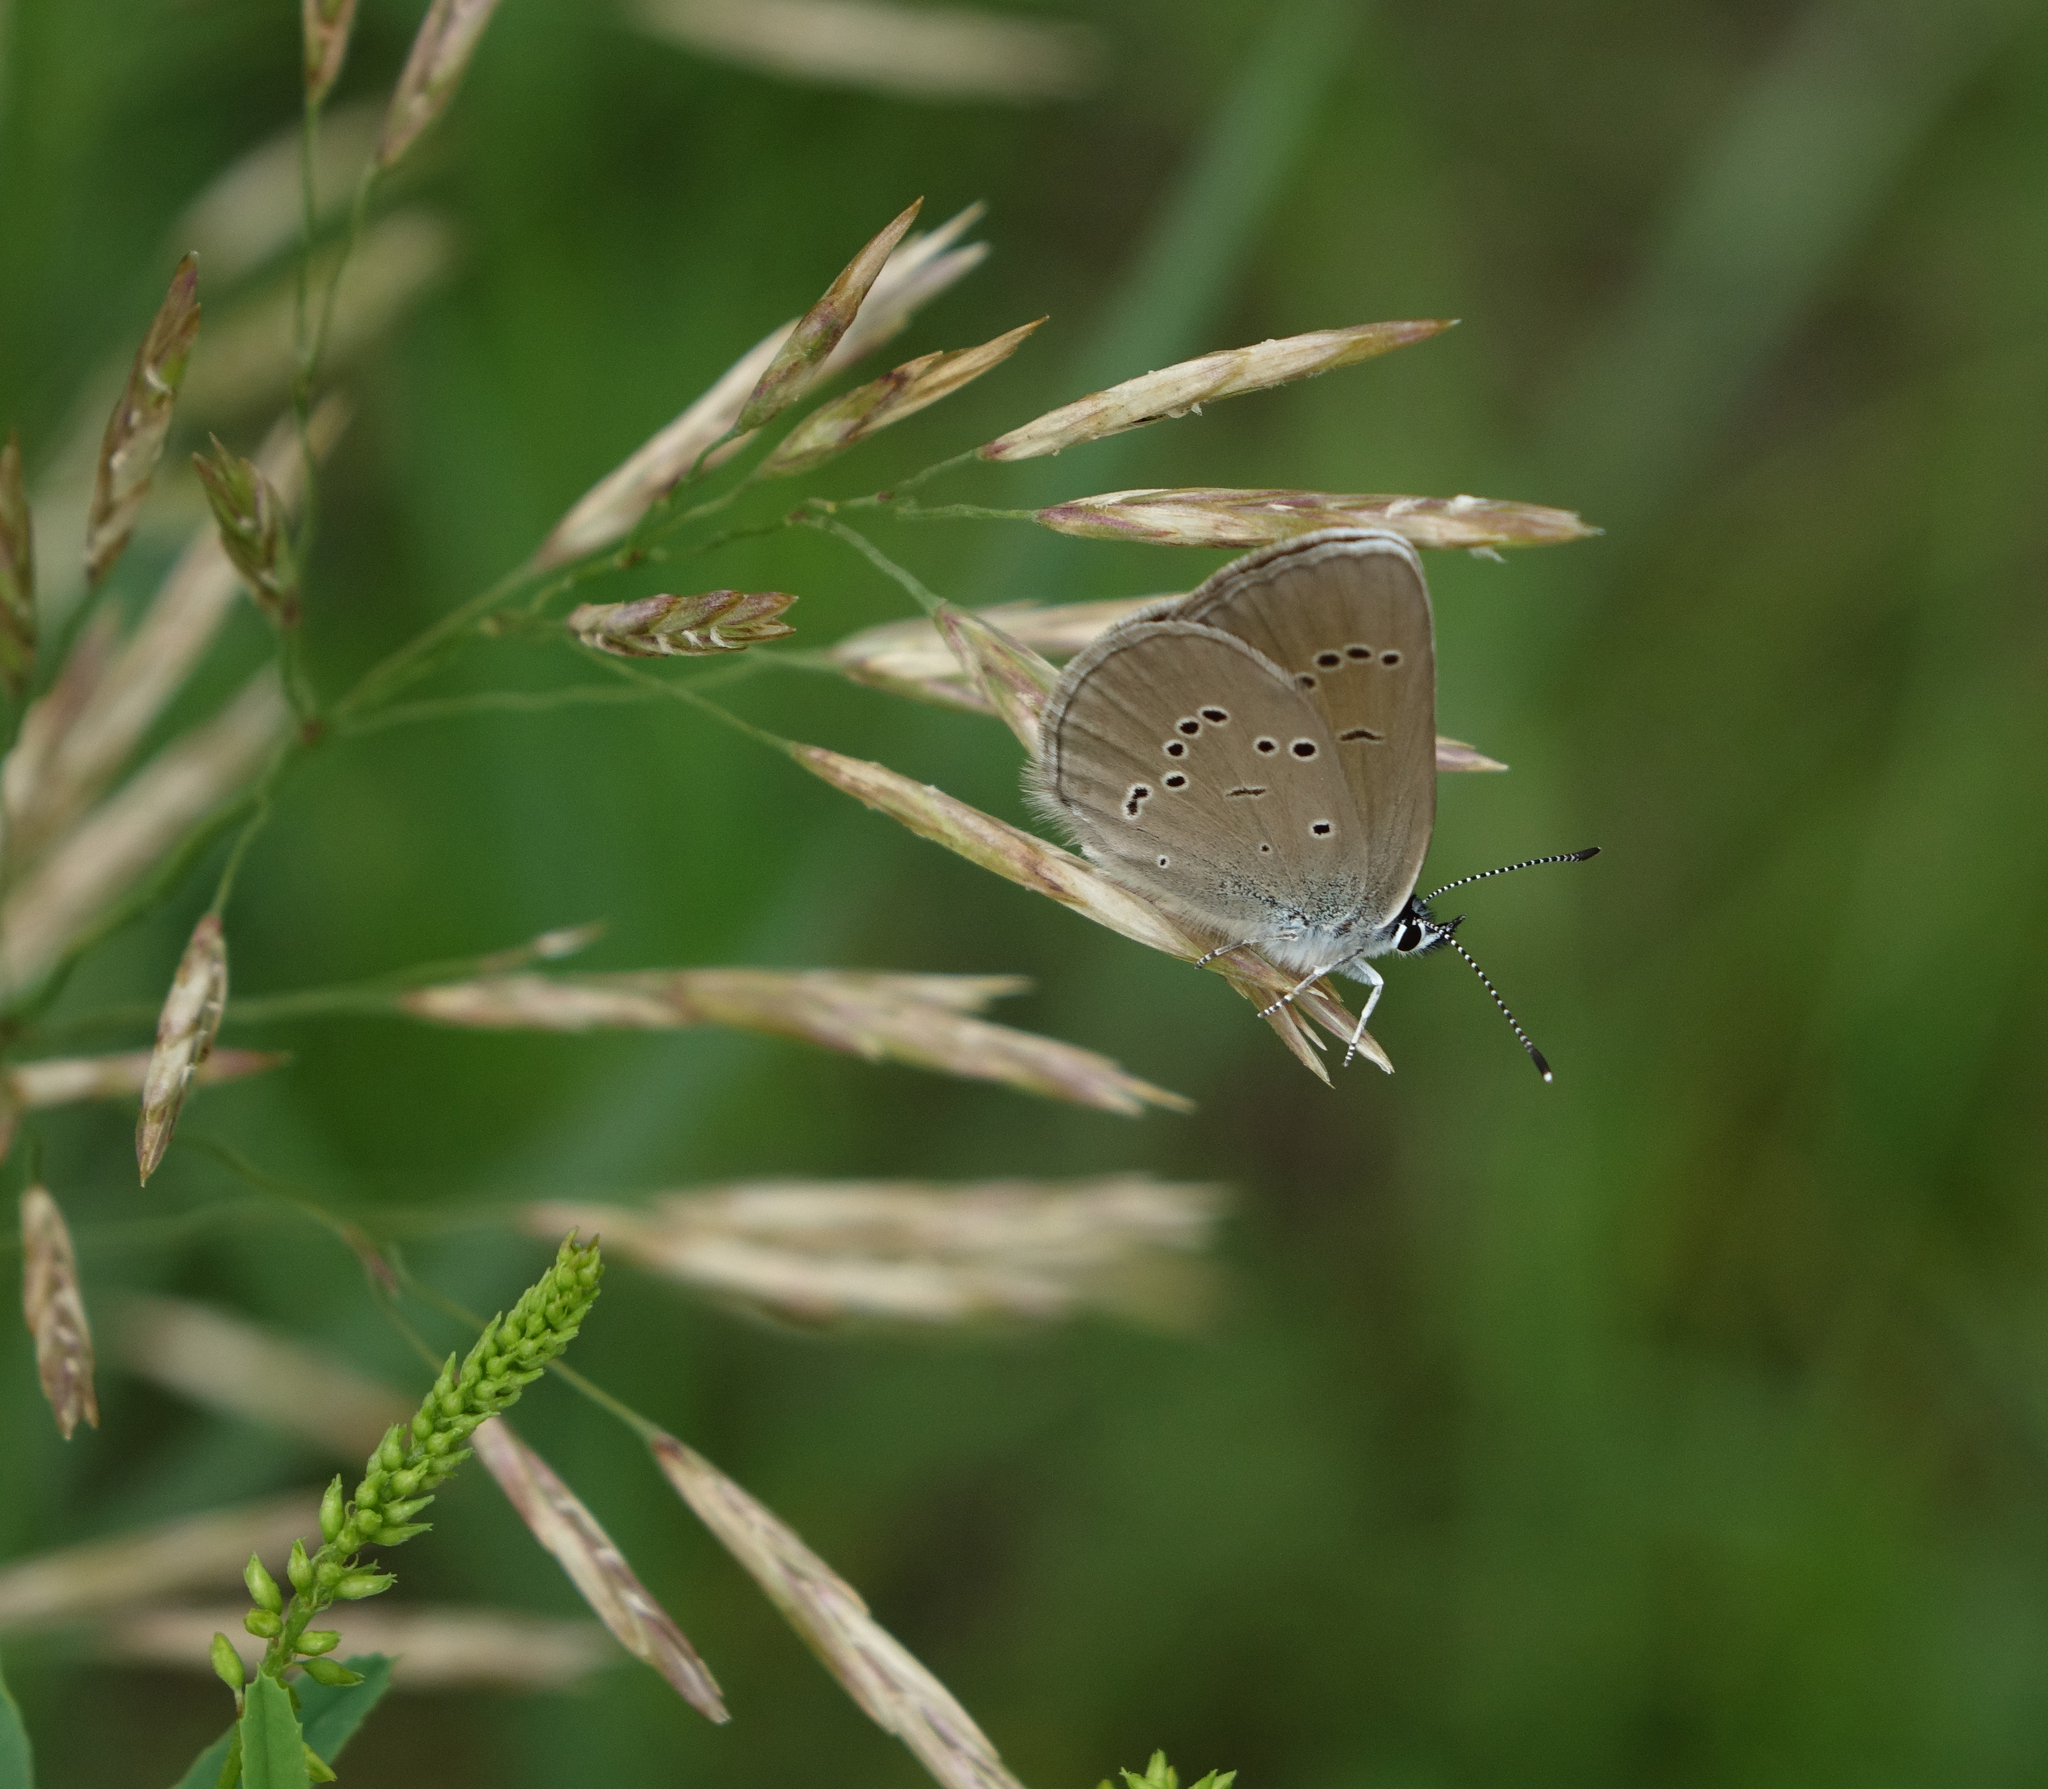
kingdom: Animalia
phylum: Arthropoda
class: Insecta
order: Lepidoptera
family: Lycaenidae
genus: Cyaniris
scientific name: Cyaniris semiargus
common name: Mazarine blue
